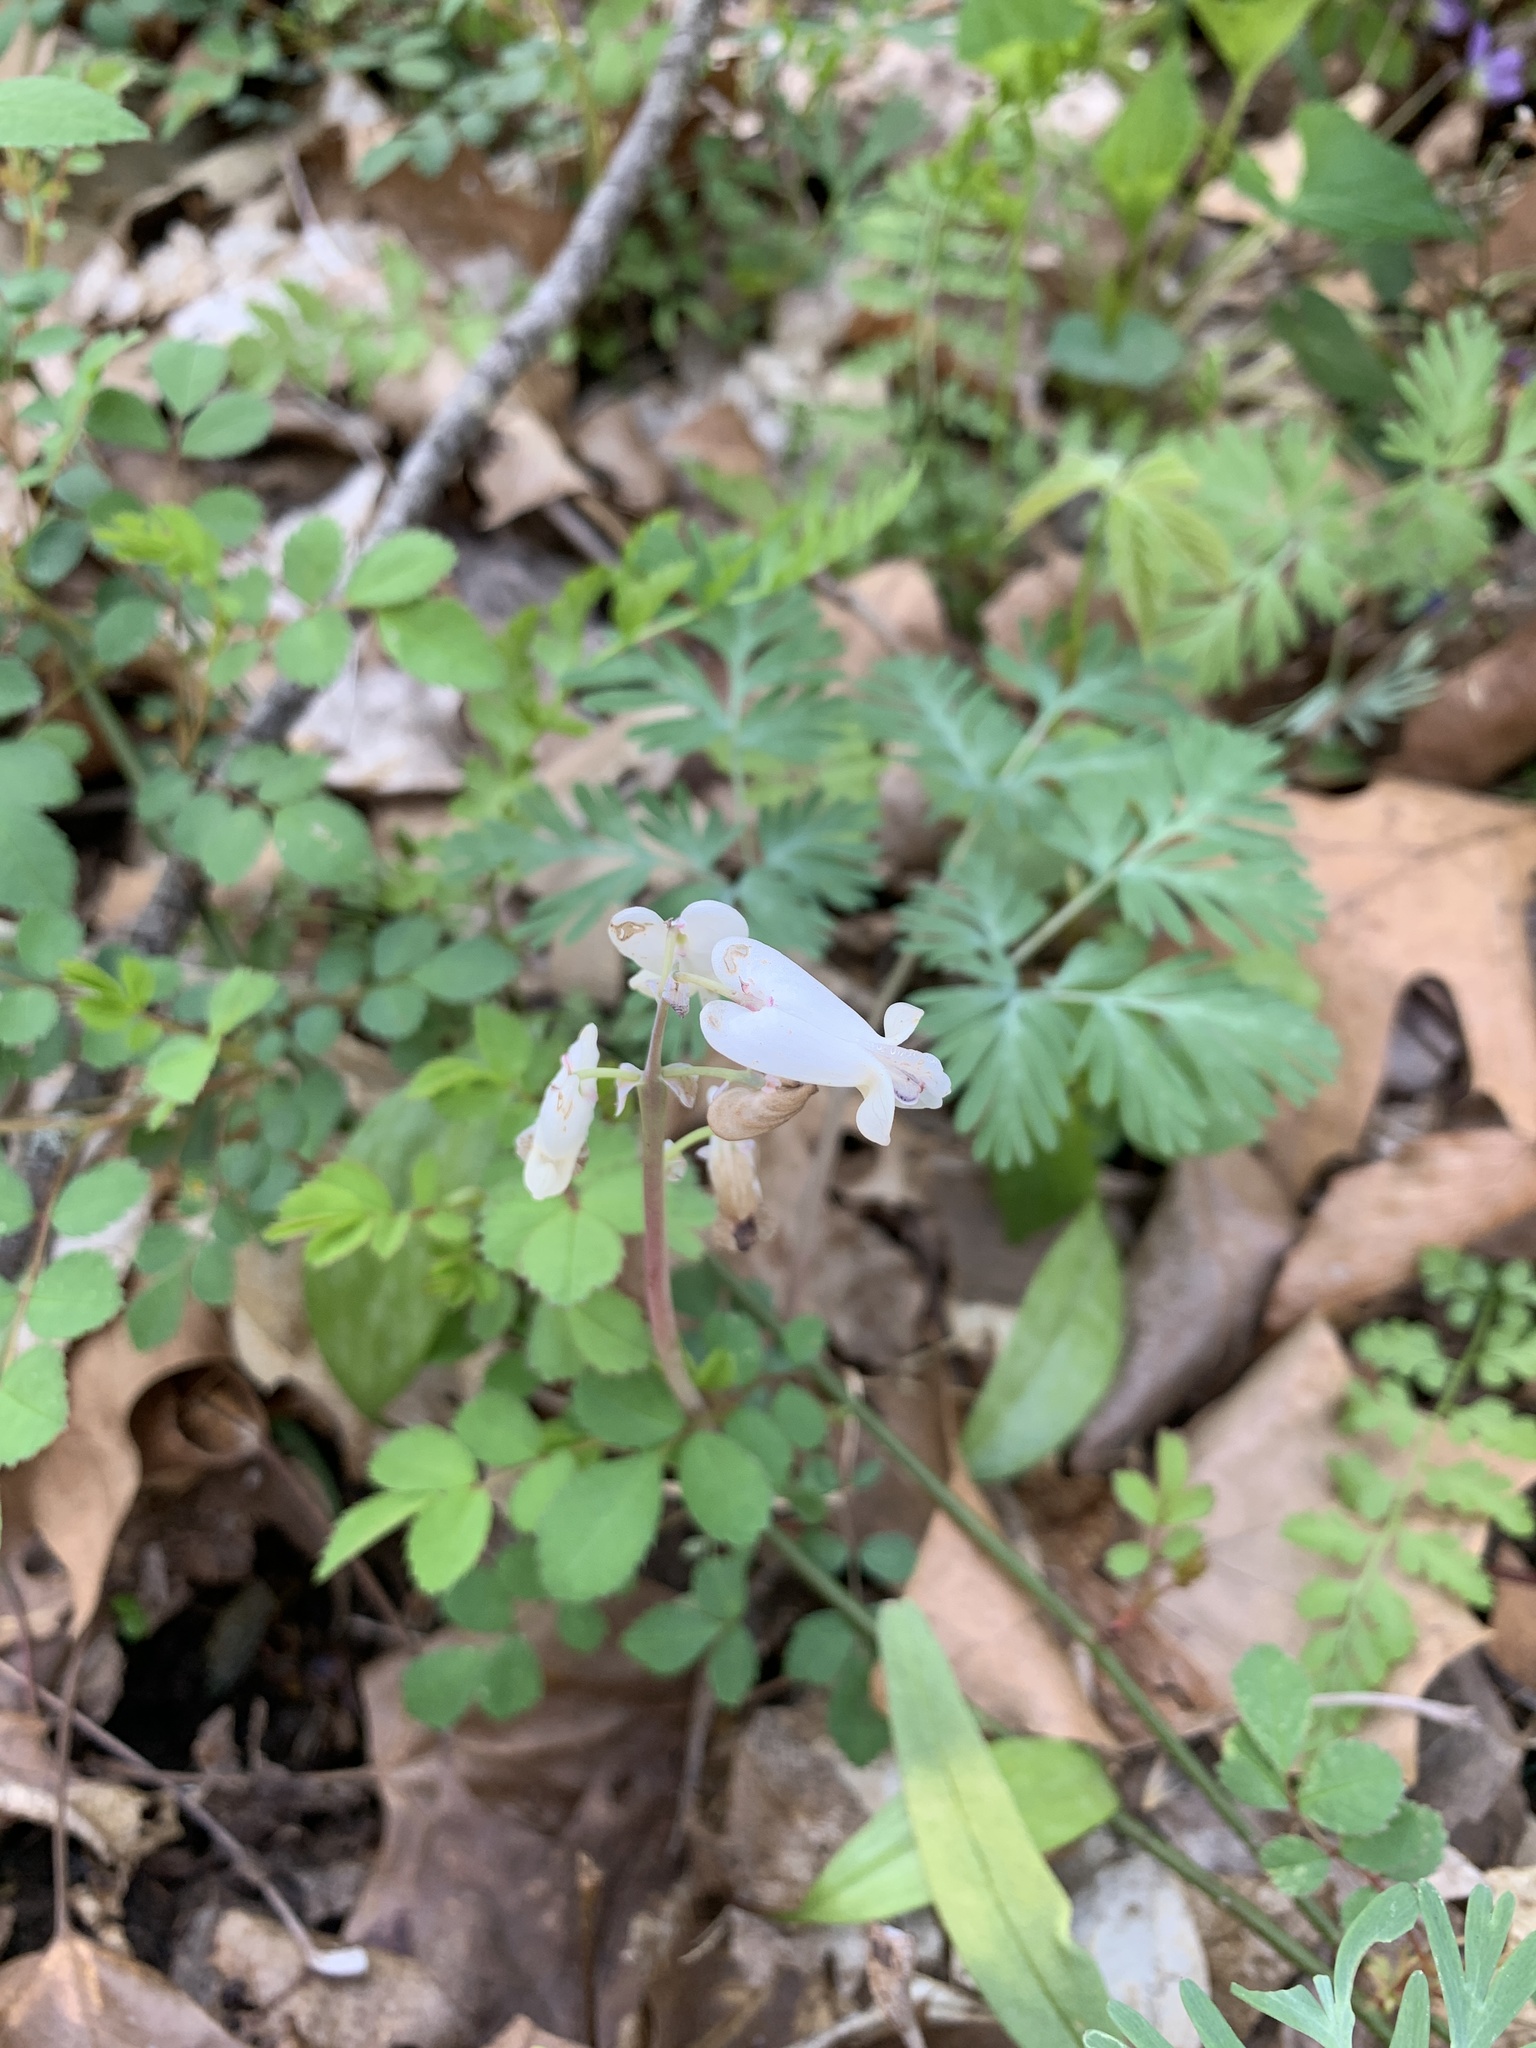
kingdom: Plantae
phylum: Tracheophyta
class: Magnoliopsida
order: Ranunculales
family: Papaveraceae
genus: Dicentra
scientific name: Dicentra canadensis
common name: Squirrel-corn
